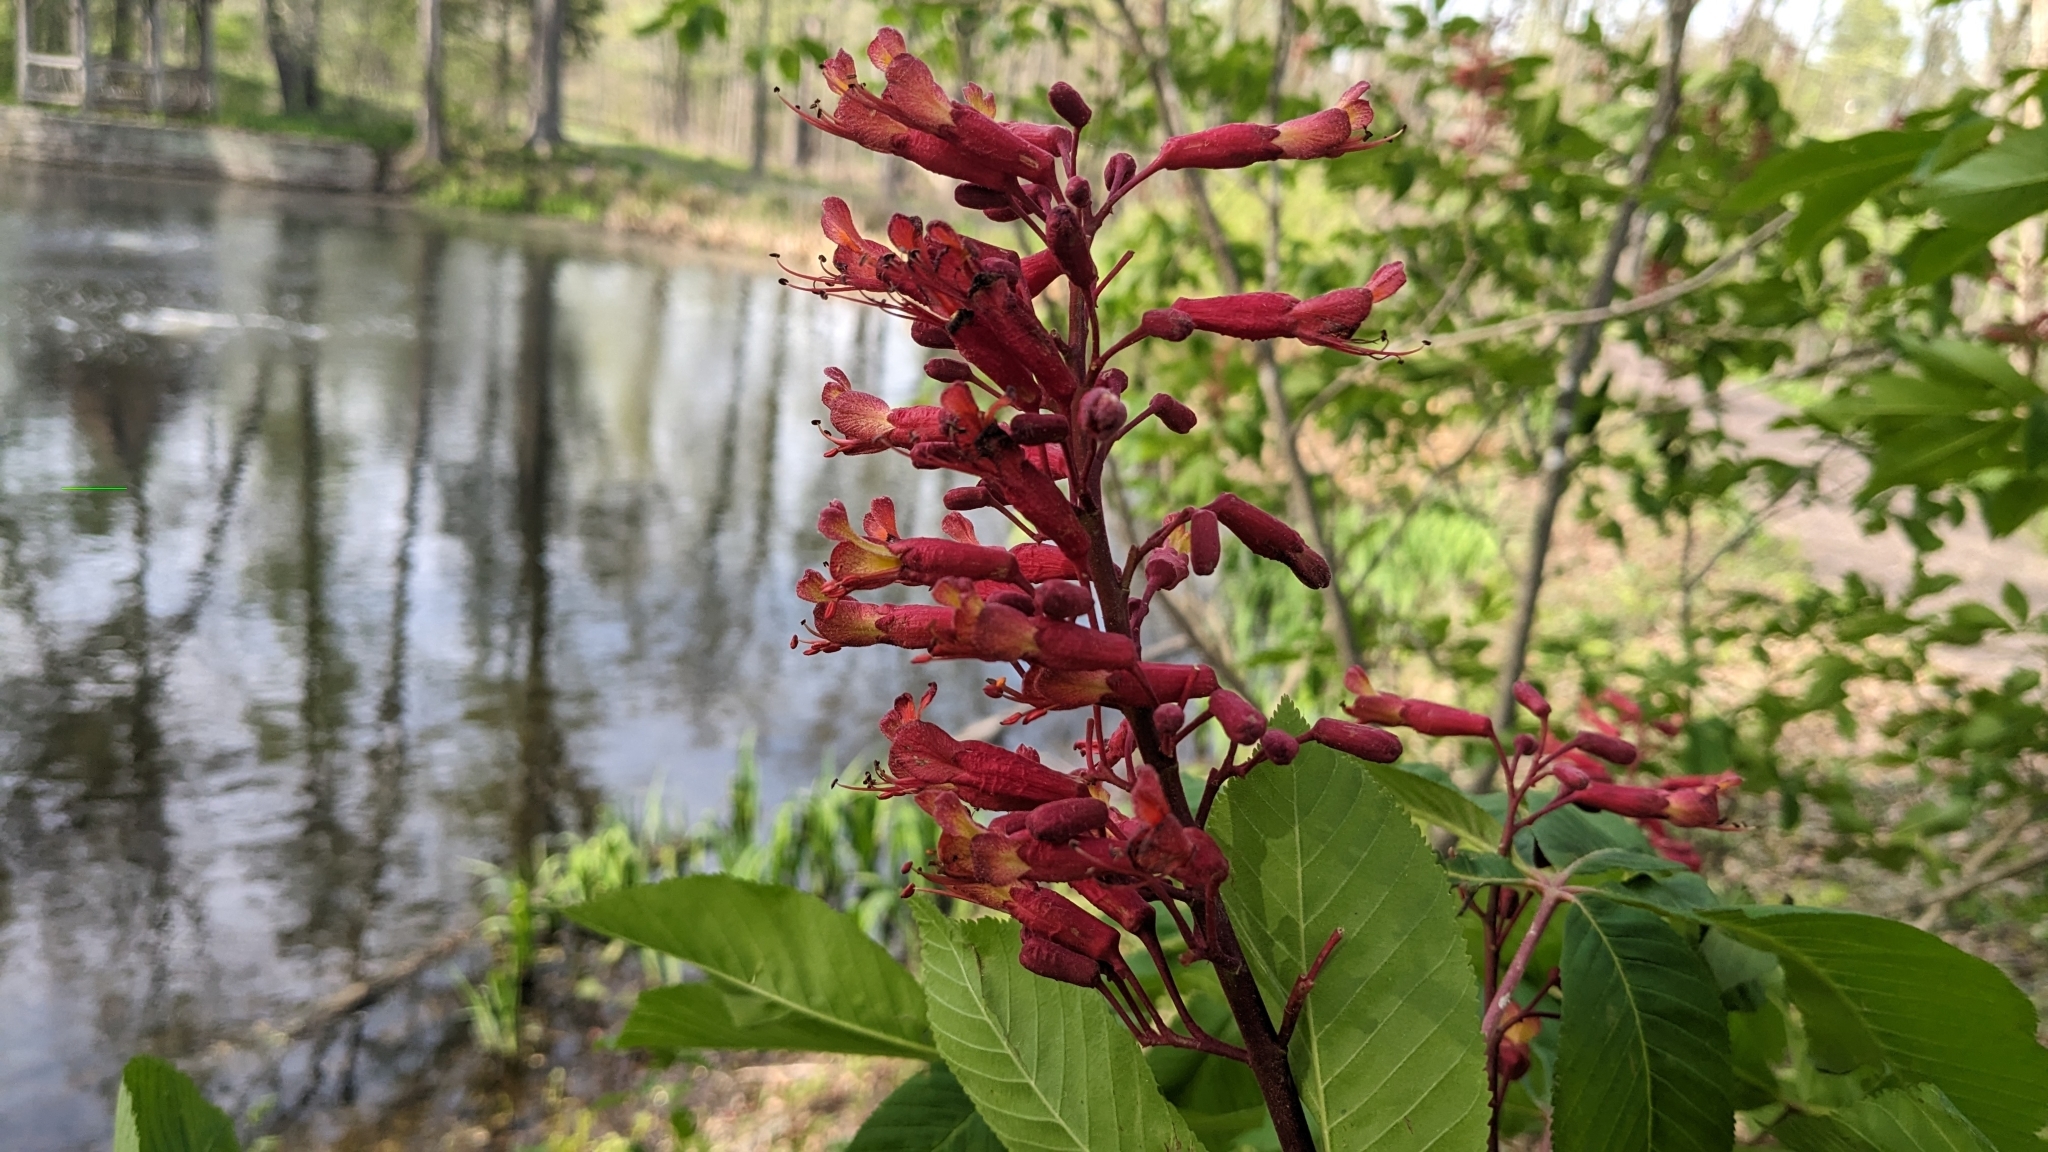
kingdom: Plantae
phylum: Tracheophyta
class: Magnoliopsida
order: Sapindales
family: Sapindaceae
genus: Aesculus
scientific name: Aesculus pavia
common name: Red buckeye
